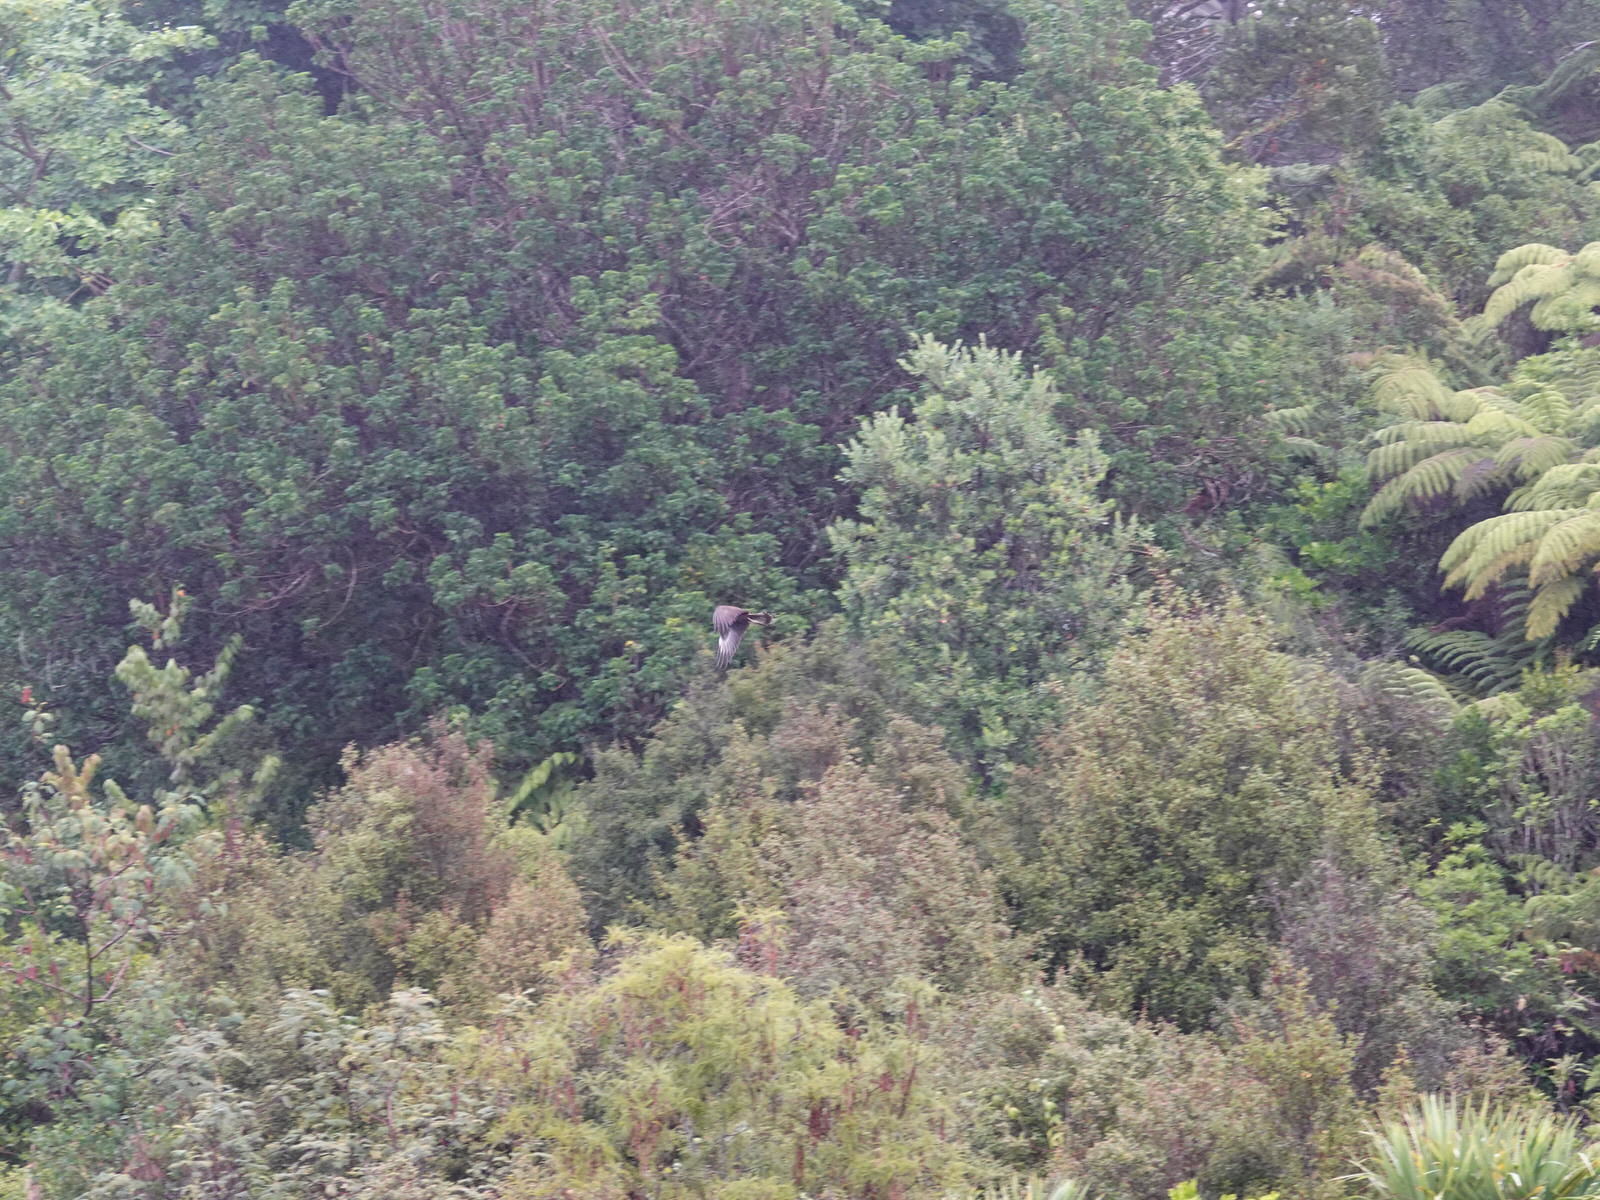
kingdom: Animalia
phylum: Chordata
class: Aves
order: Accipitriformes
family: Accipitridae
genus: Circus
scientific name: Circus approximans
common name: Swamp harrier
